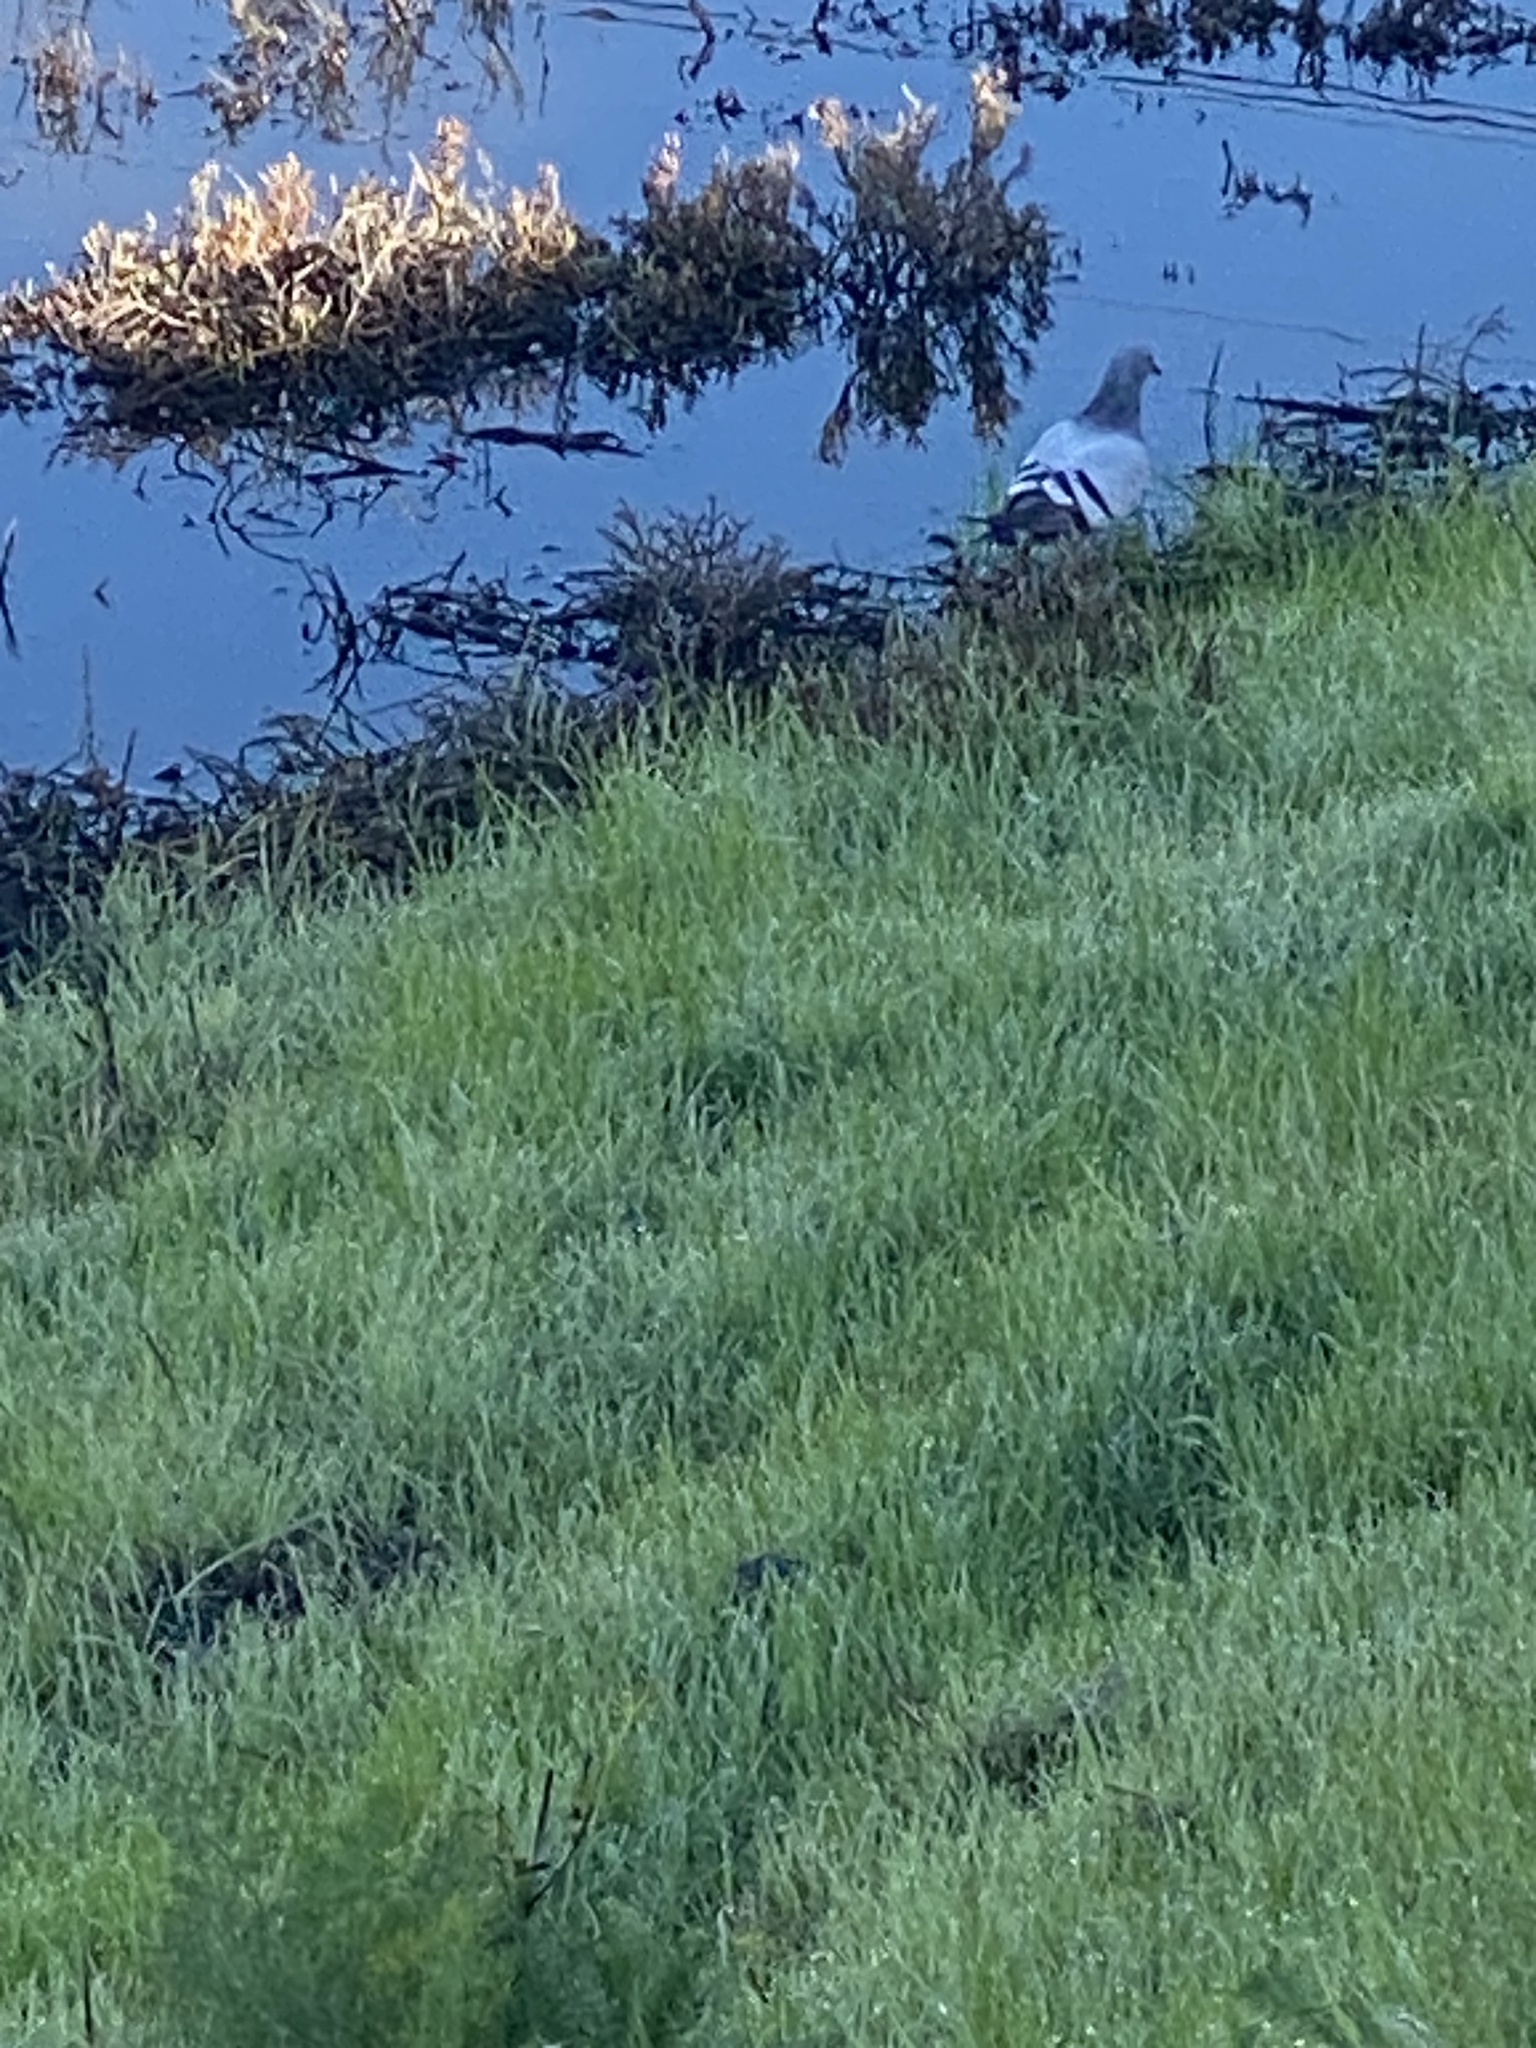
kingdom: Animalia
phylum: Chordata
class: Aves
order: Columbiformes
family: Columbidae
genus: Columba
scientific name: Columba livia
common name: Rock pigeon
